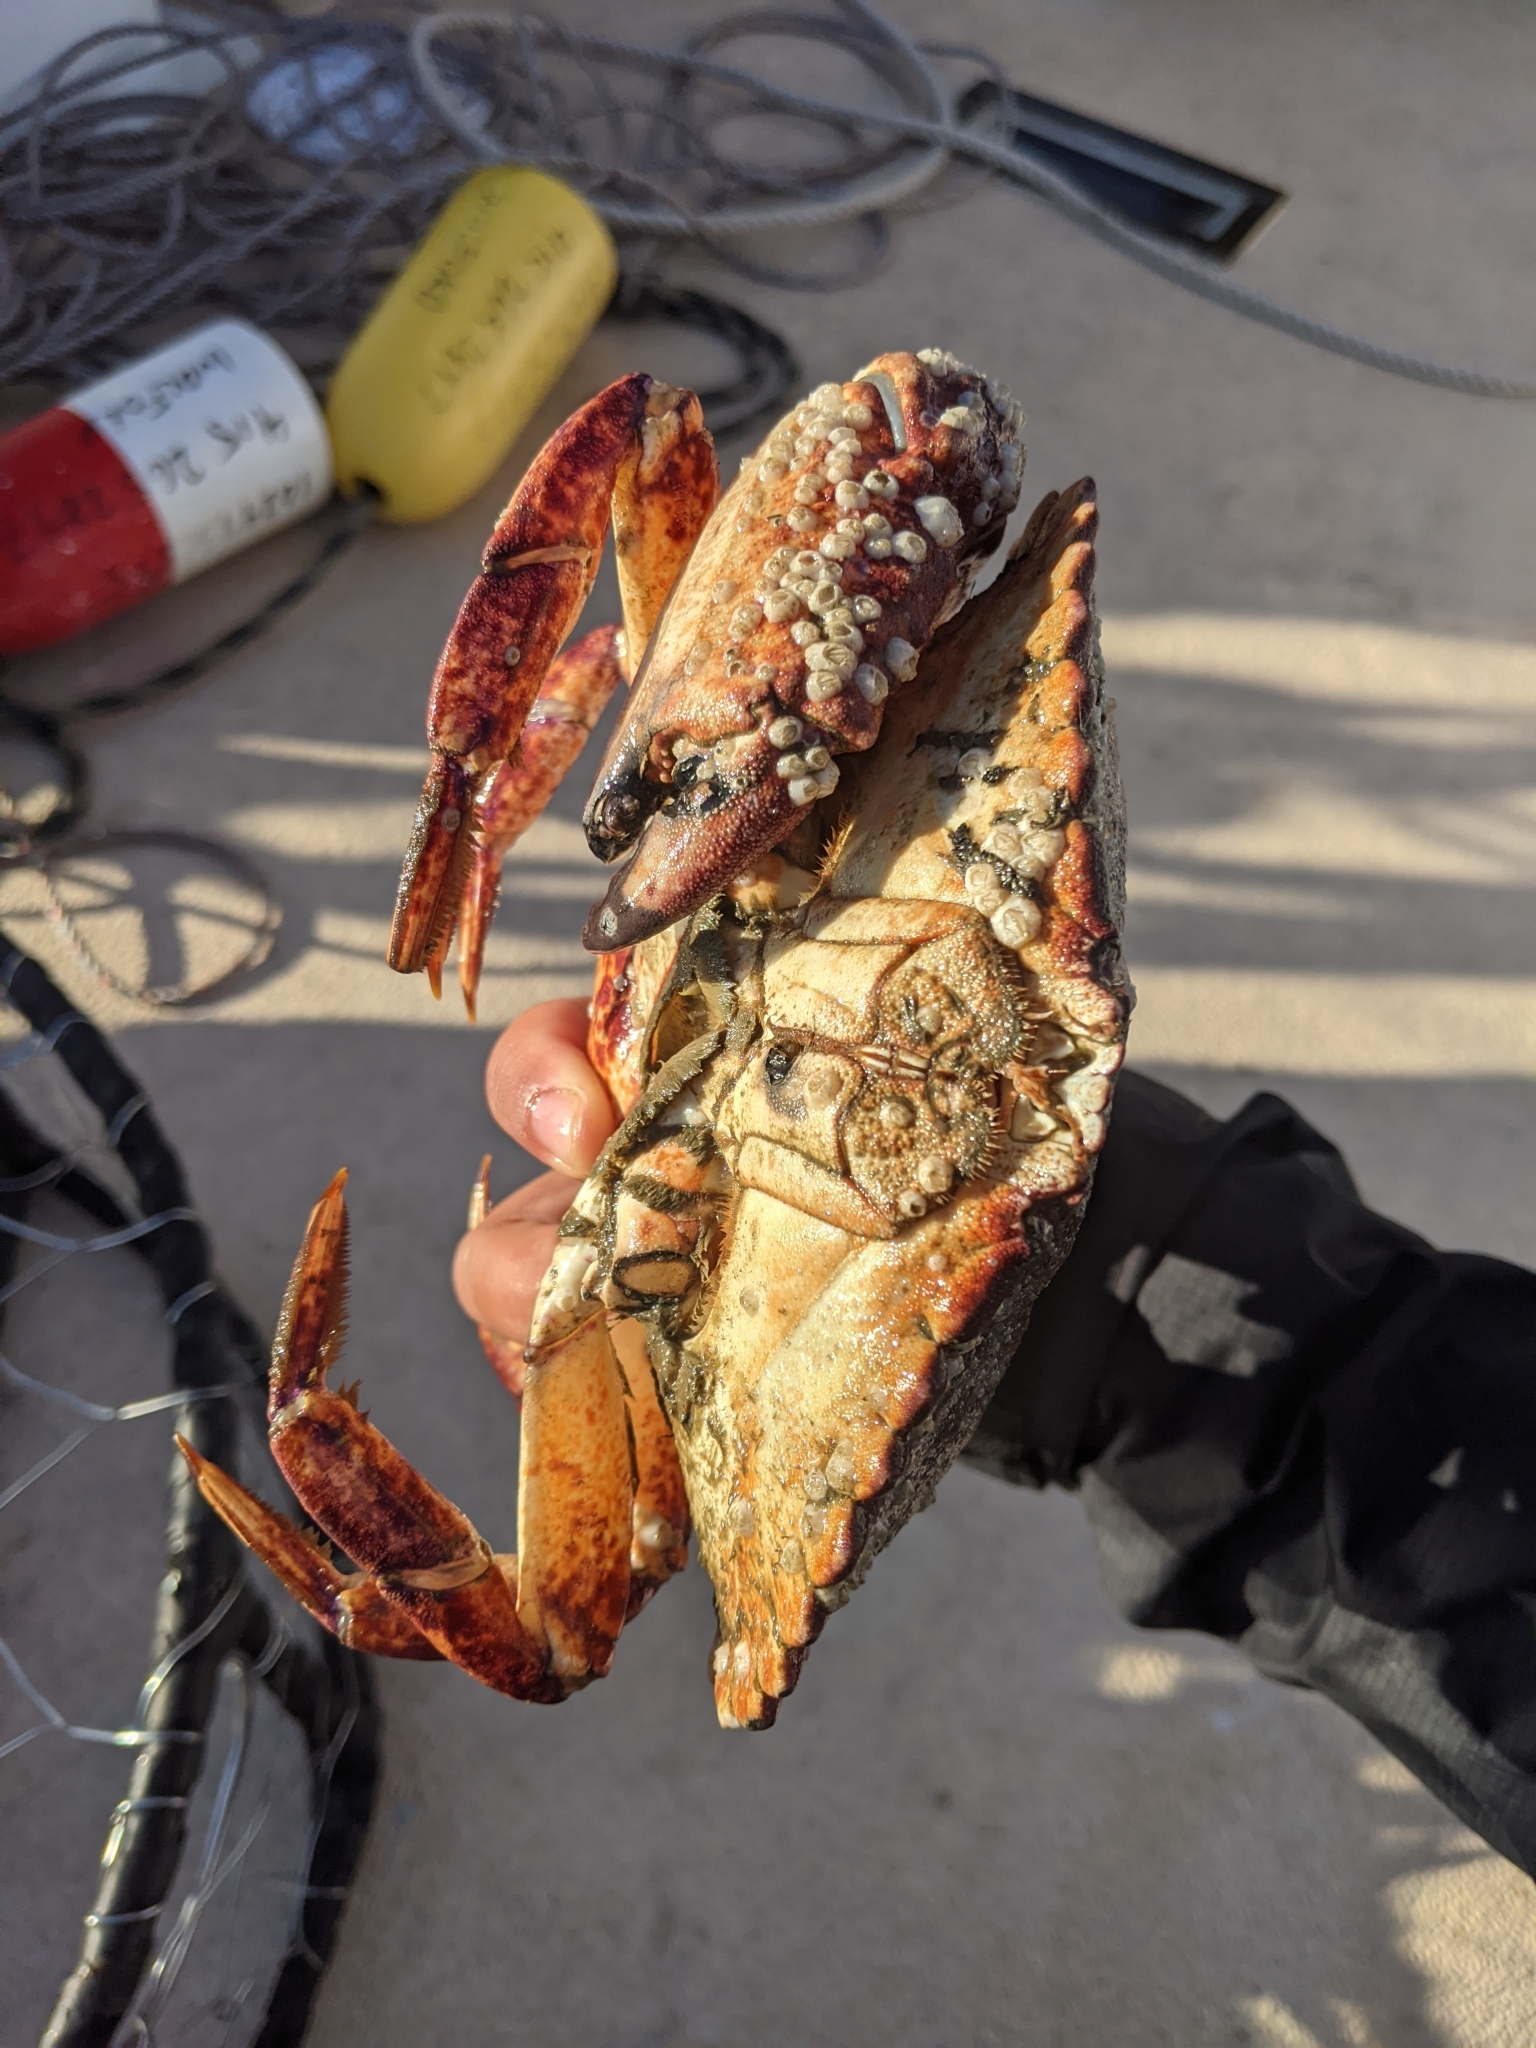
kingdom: Animalia
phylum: Arthropoda
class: Malacostraca
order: Decapoda
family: Cancridae
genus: Cancer
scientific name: Cancer productus
